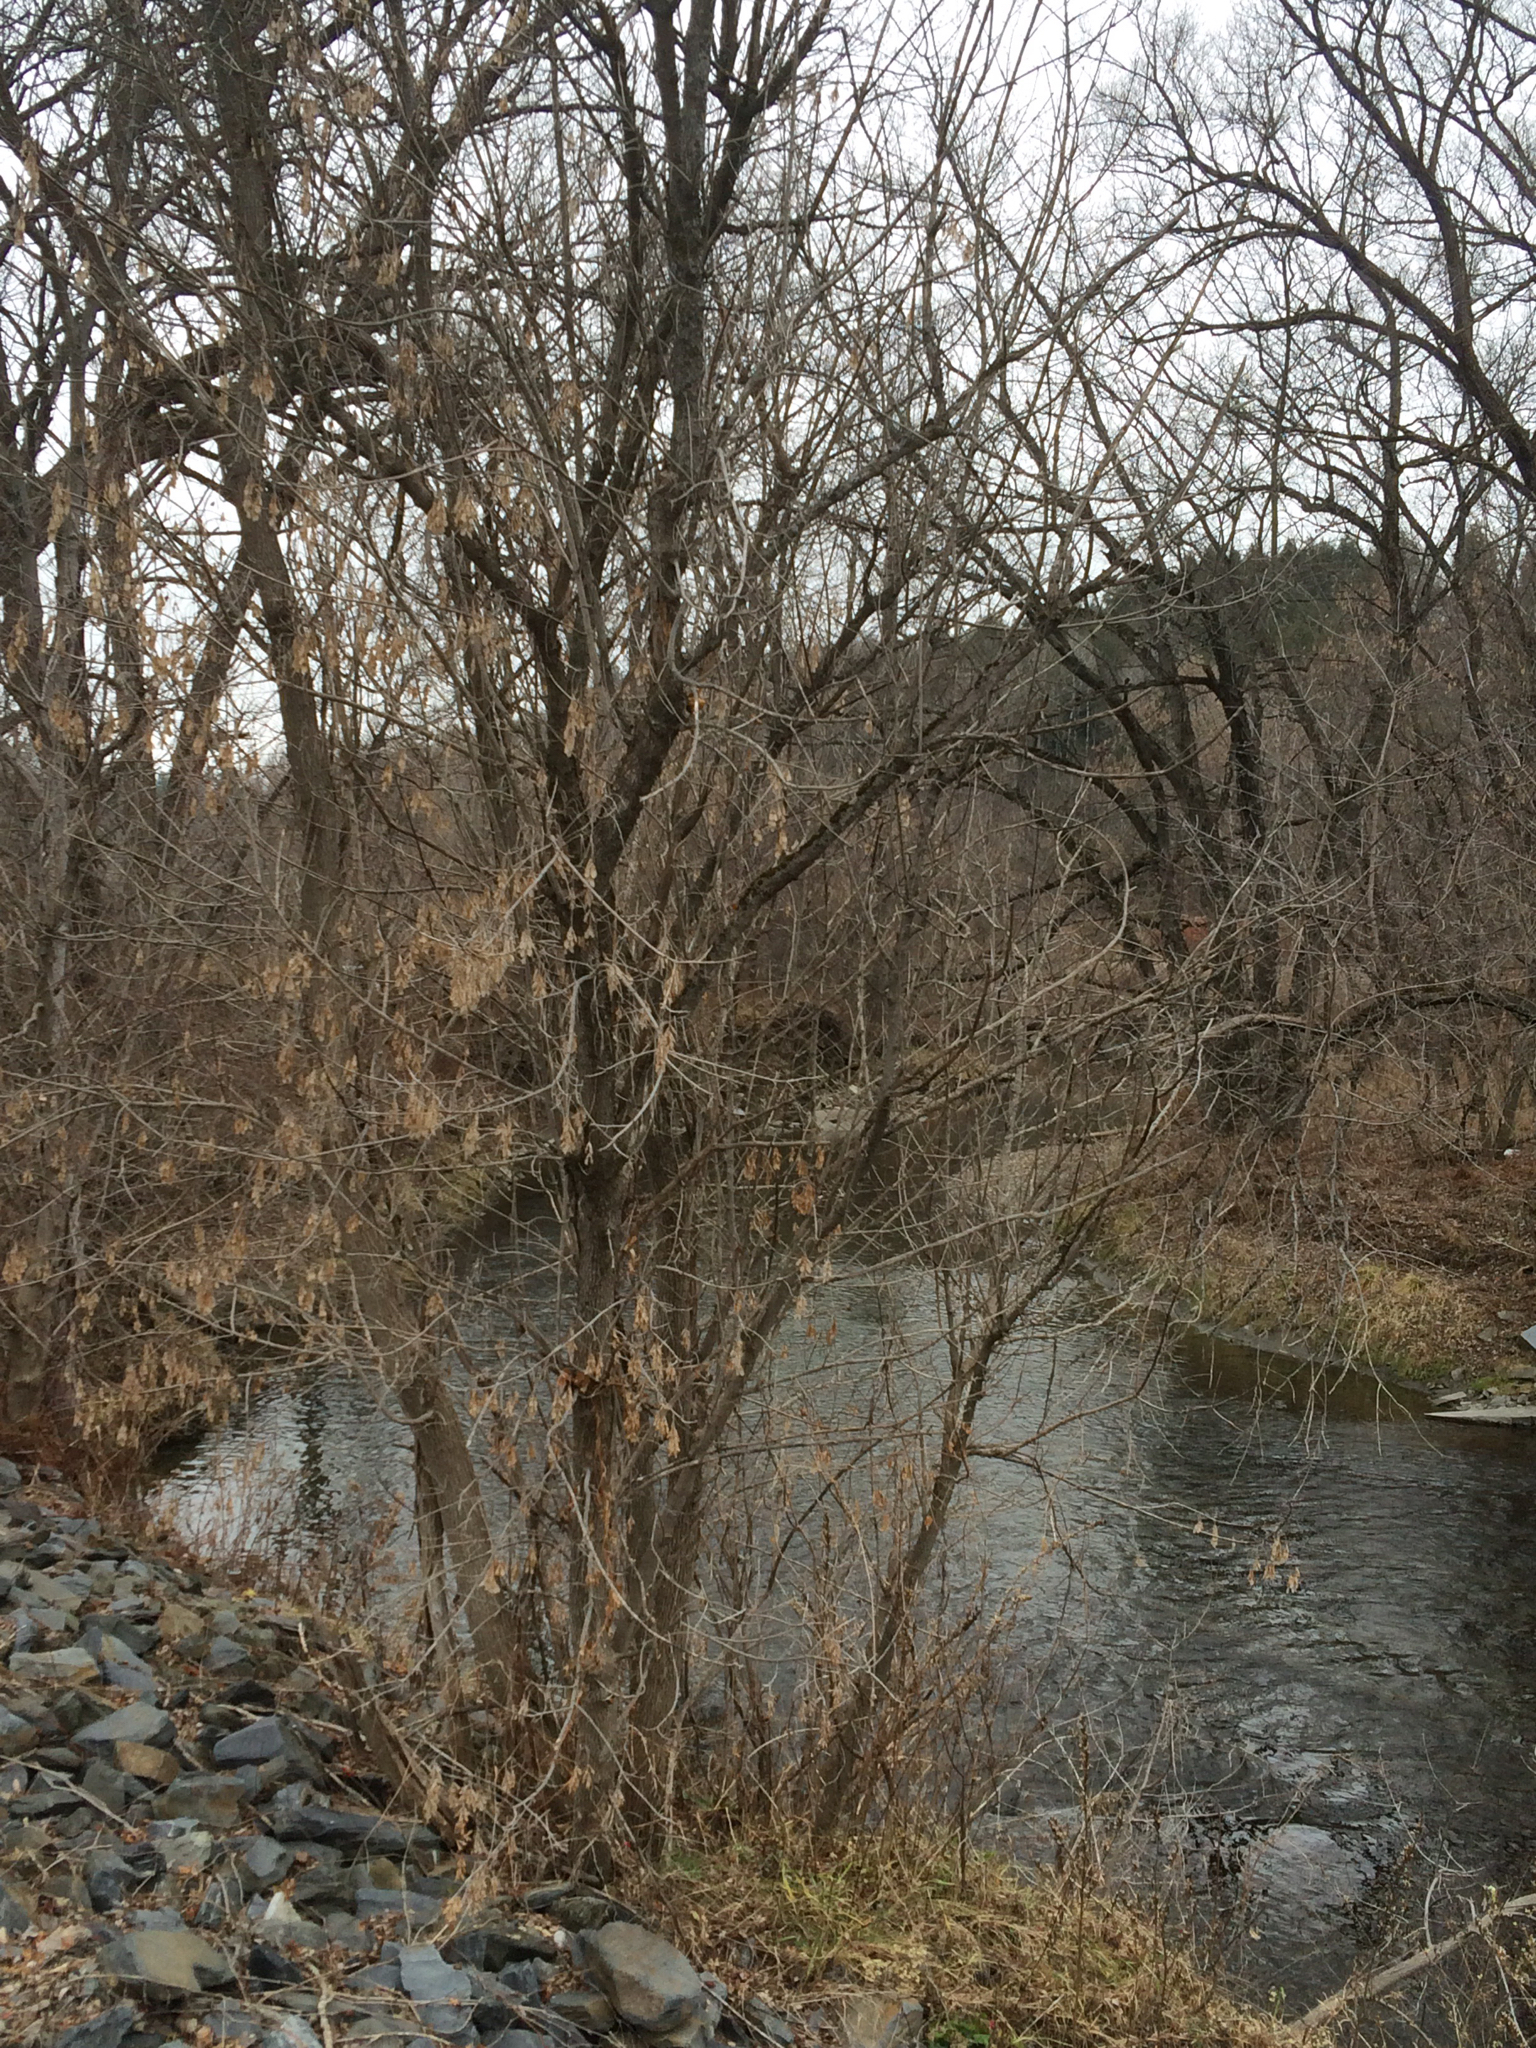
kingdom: Plantae
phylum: Tracheophyta
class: Magnoliopsida
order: Sapindales
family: Sapindaceae
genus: Acer
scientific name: Acer negundo
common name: Ashleaf maple
